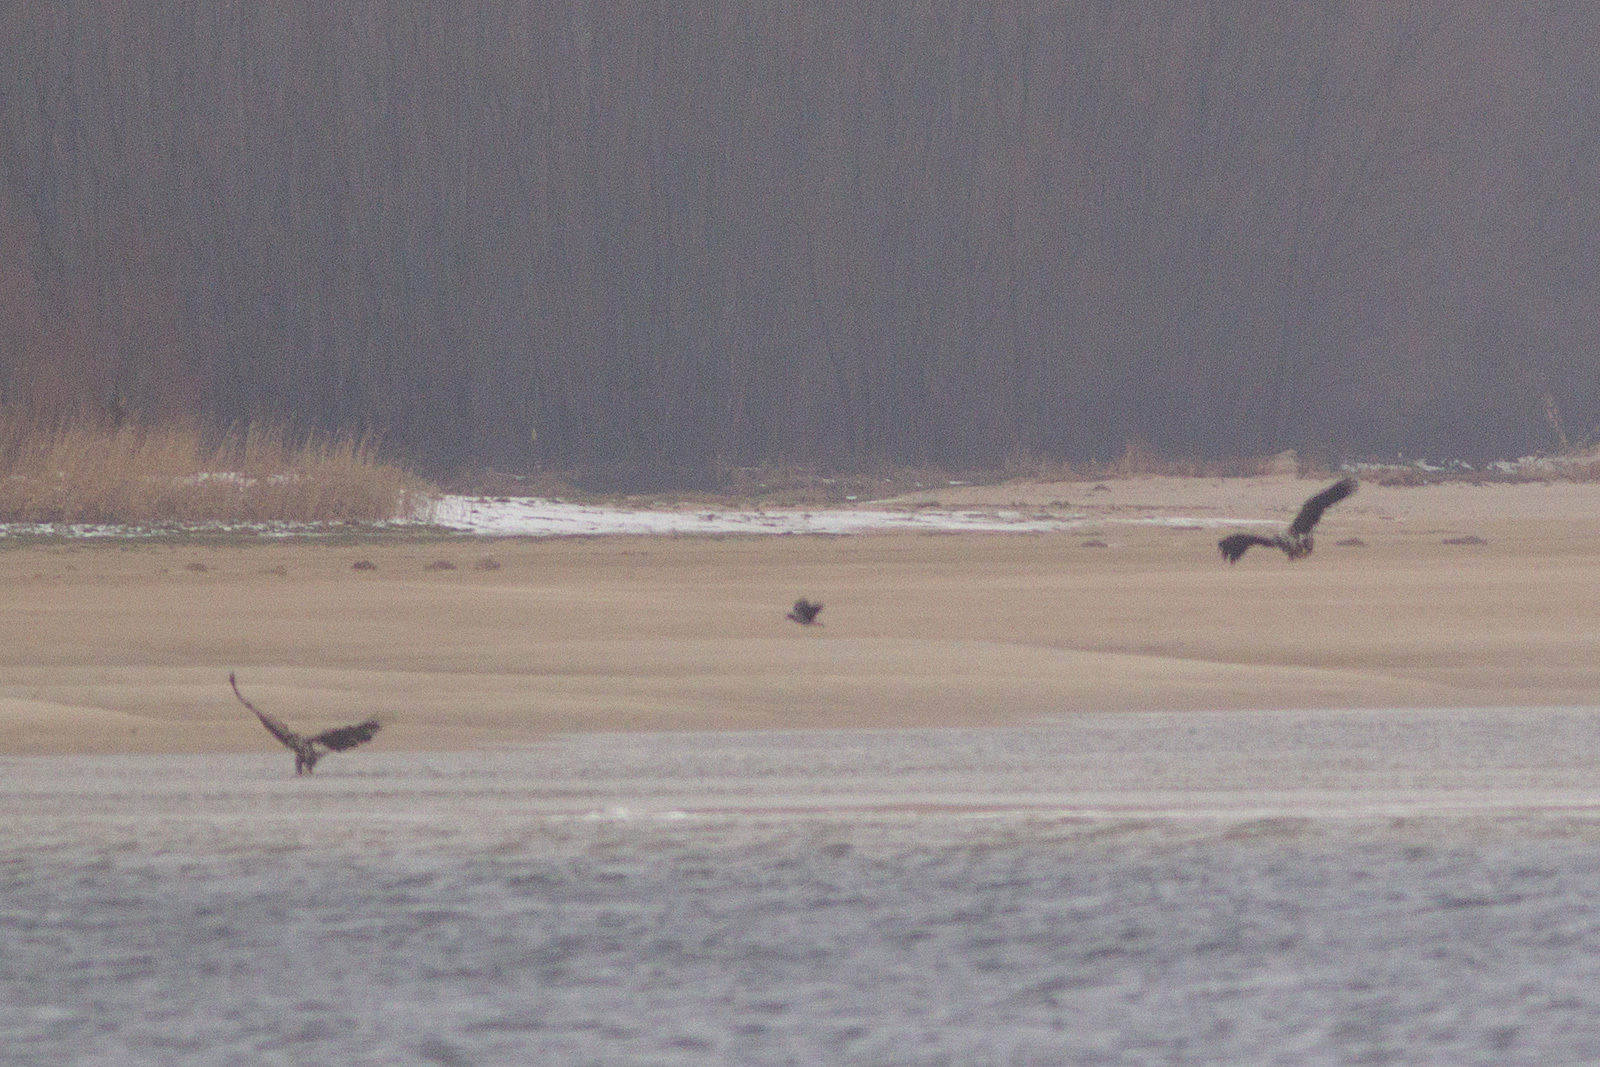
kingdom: Animalia
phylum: Chordata
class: Aves
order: Accipitriformes
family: Accipitridae
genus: Haliaeetus
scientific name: Haliaeetus albicilla
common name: White-tailed eagle
